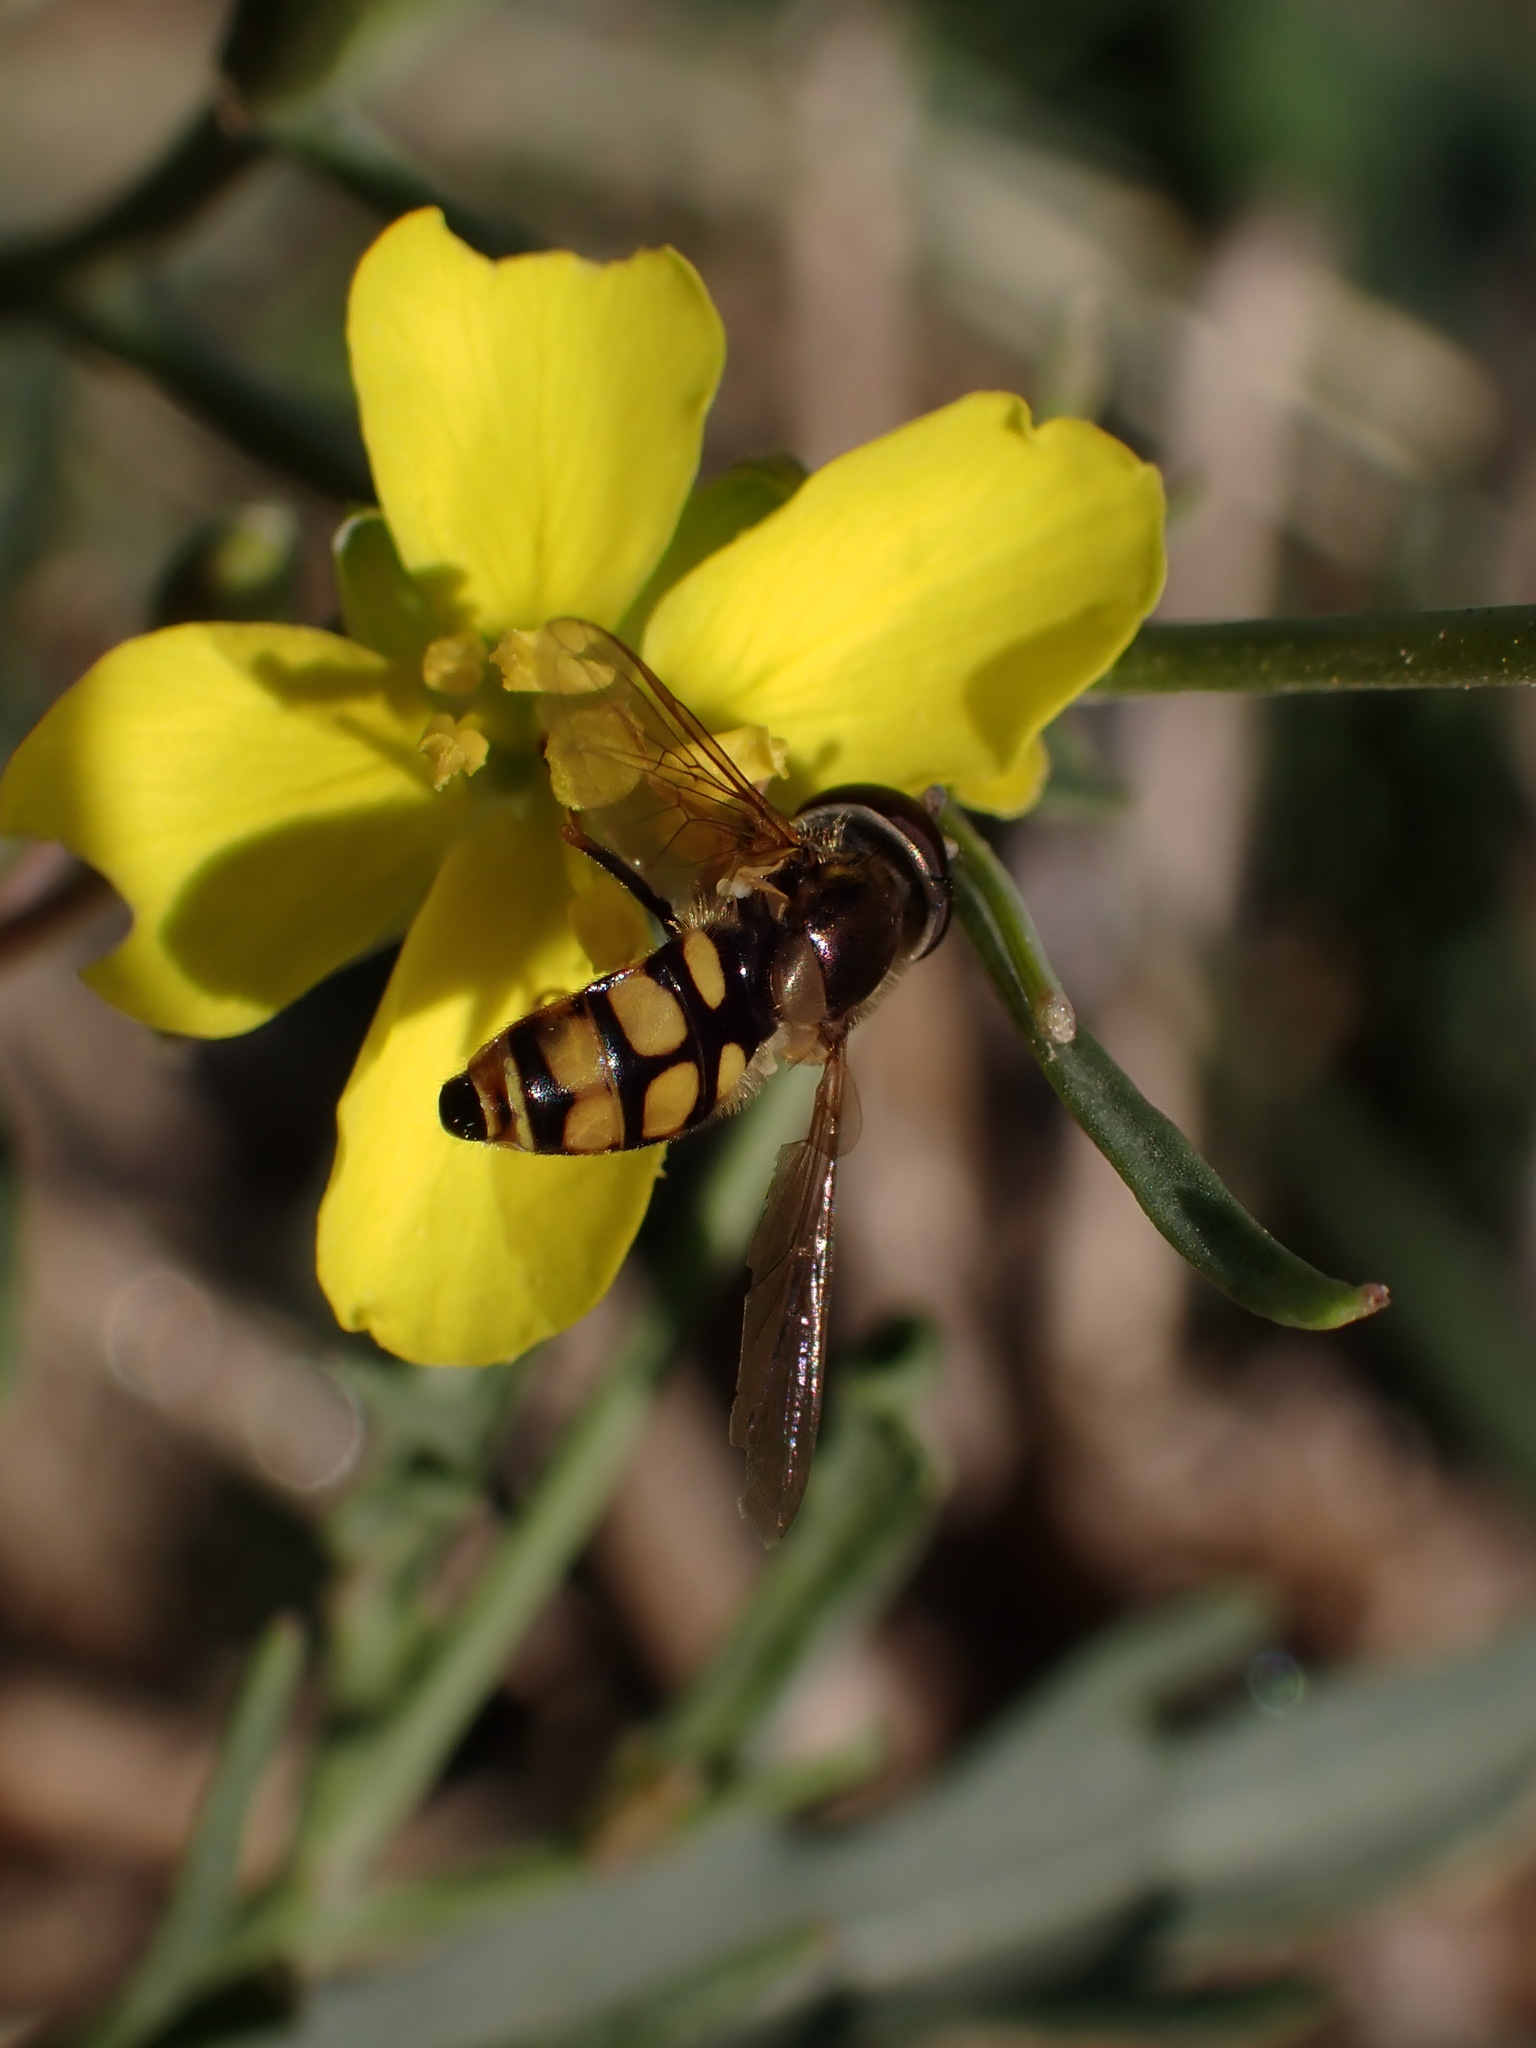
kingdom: Animalia
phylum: Arthropoda
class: Insecta
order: Diptera
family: Syrphidae
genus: Eupeodes
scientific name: Eupeodes corollae
